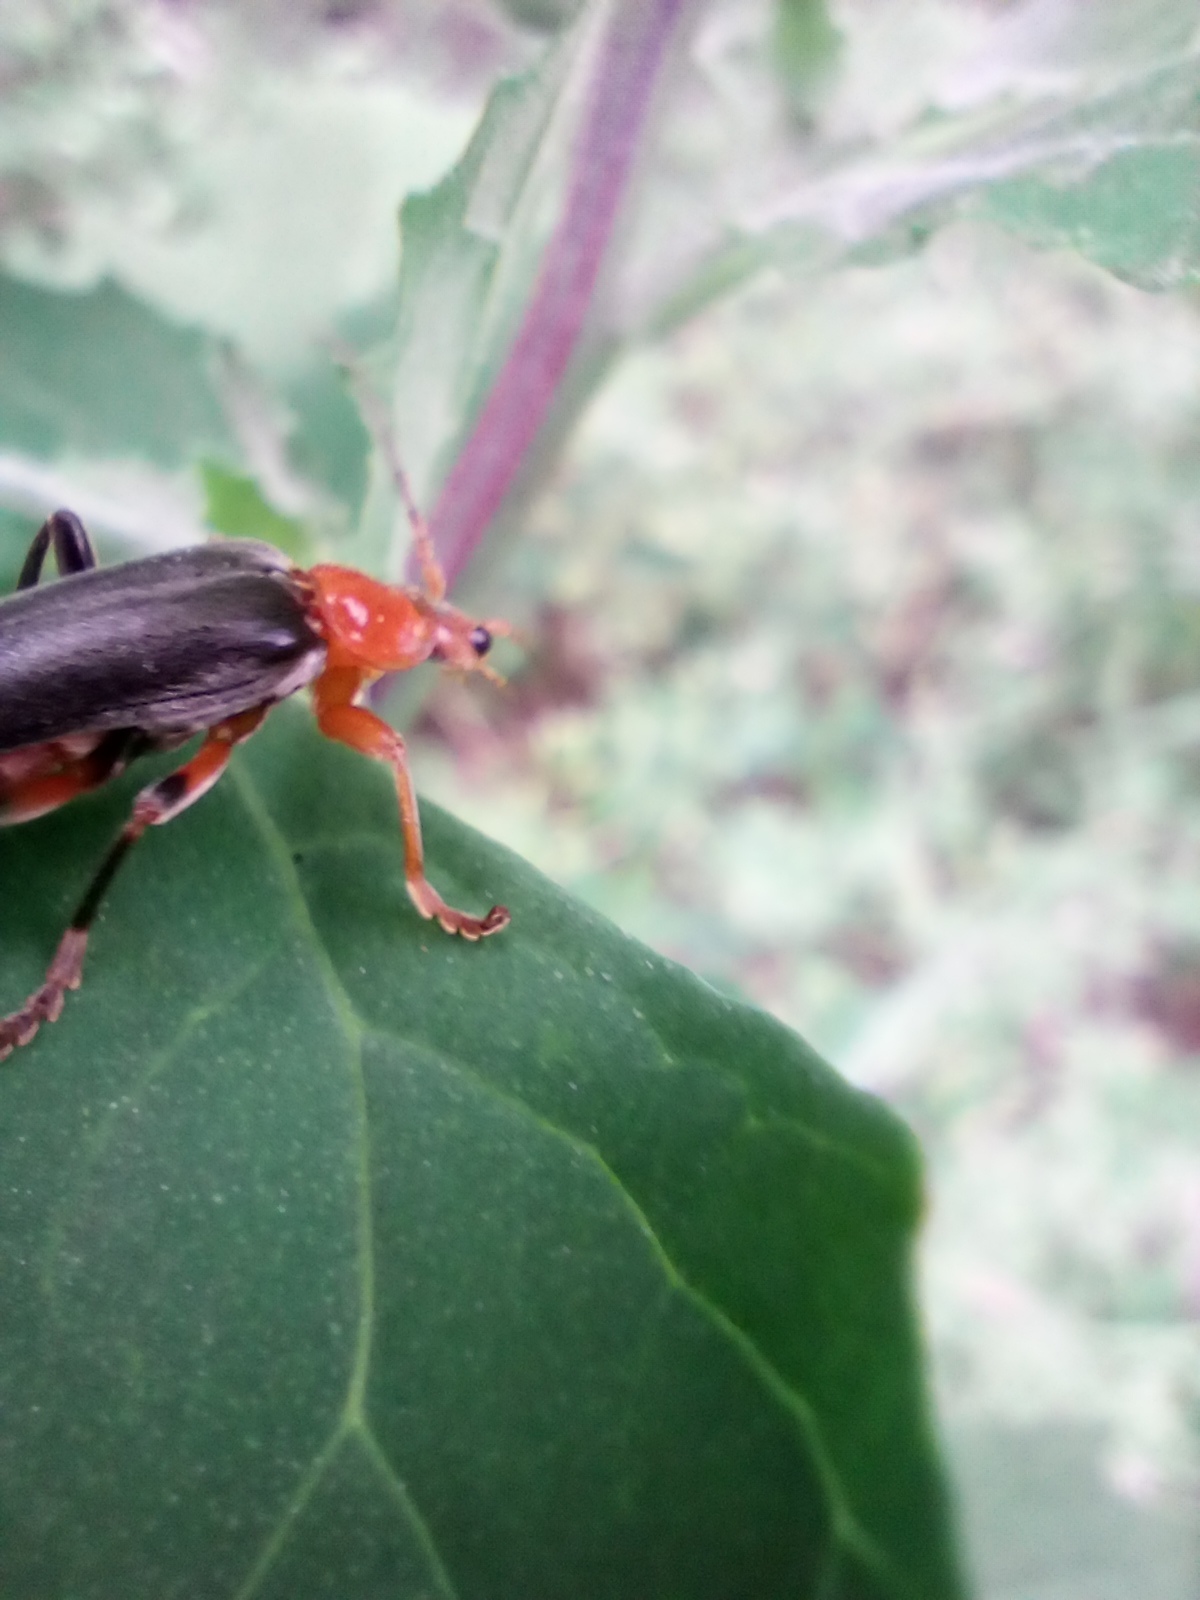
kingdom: Animalia
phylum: Arthropoda
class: Insecta
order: Coleoptera
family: Cantharidae
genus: Cantharis
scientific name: Cantharis livida
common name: Livid soldier beetle
